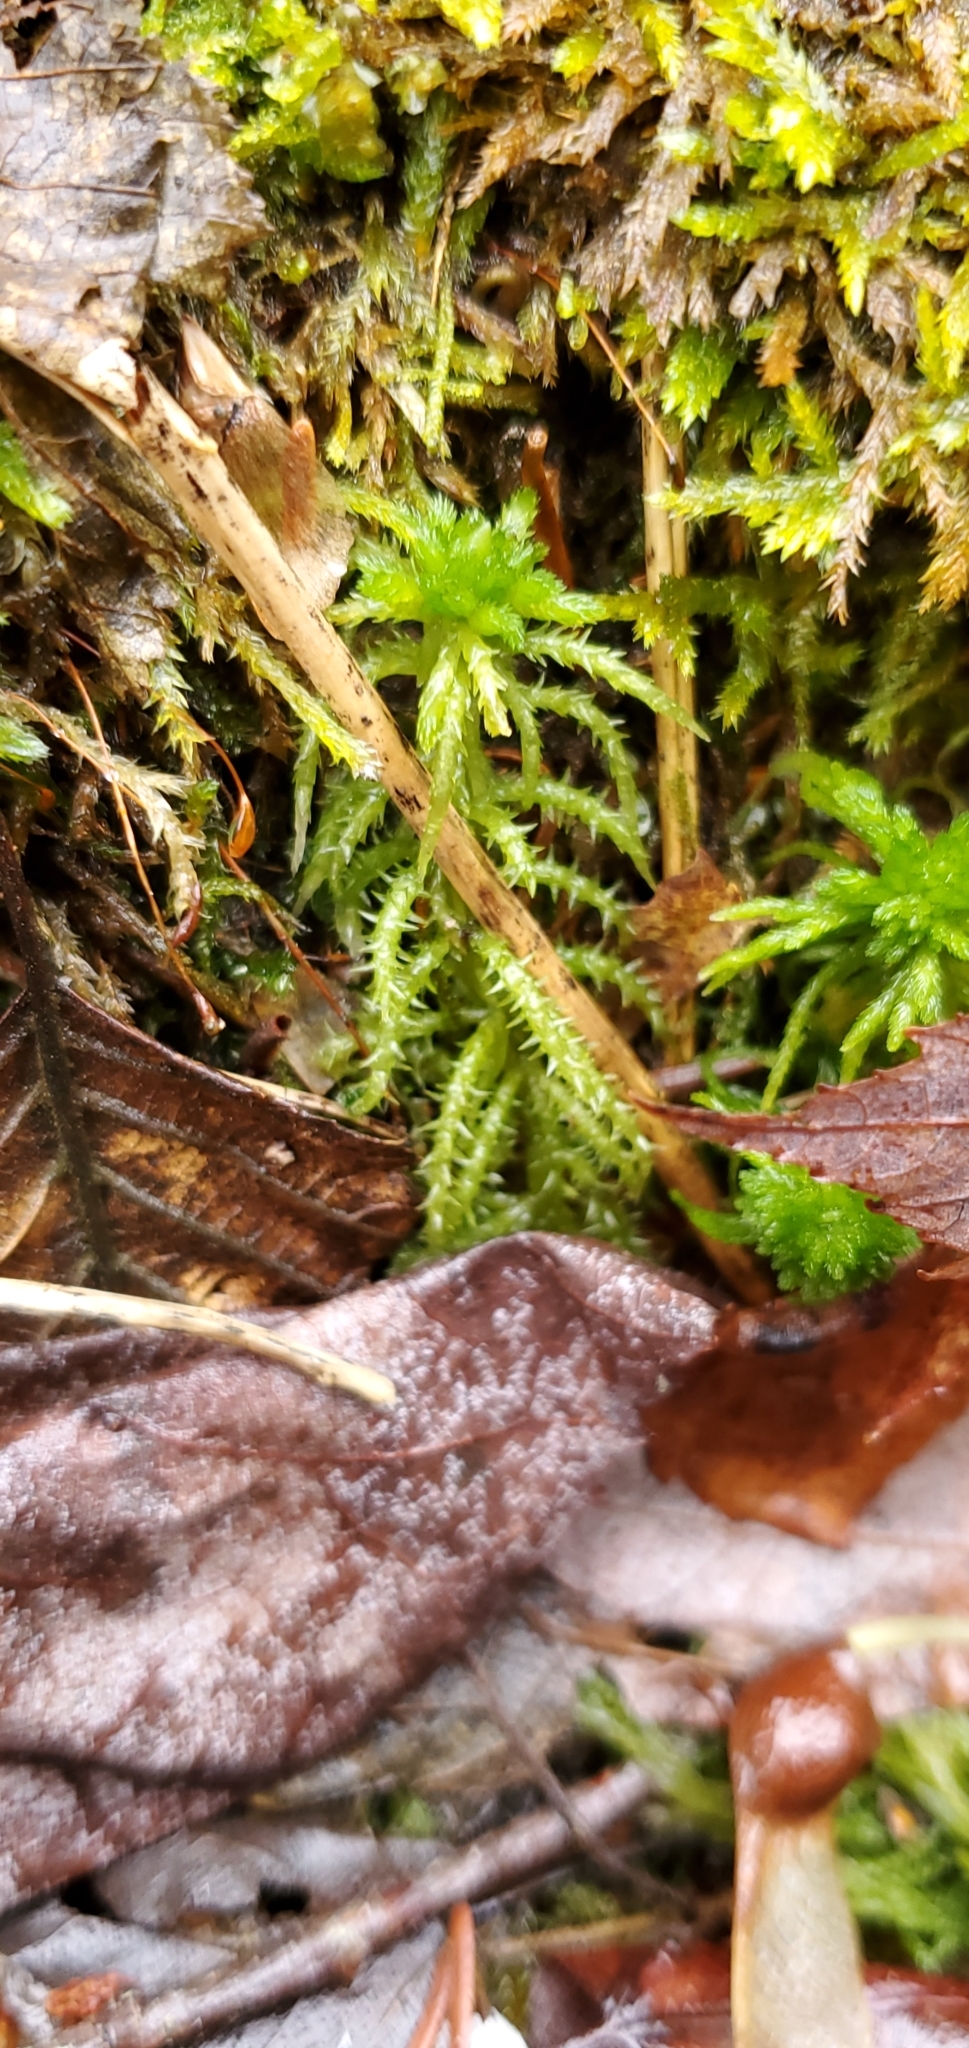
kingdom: Plantae
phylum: Bryophyta
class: Sphagnopsida
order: Sphagnales
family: Sphagnaceae
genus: Sphagnum
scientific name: Sphagnum squarrosum
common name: Shaggy peat moss
